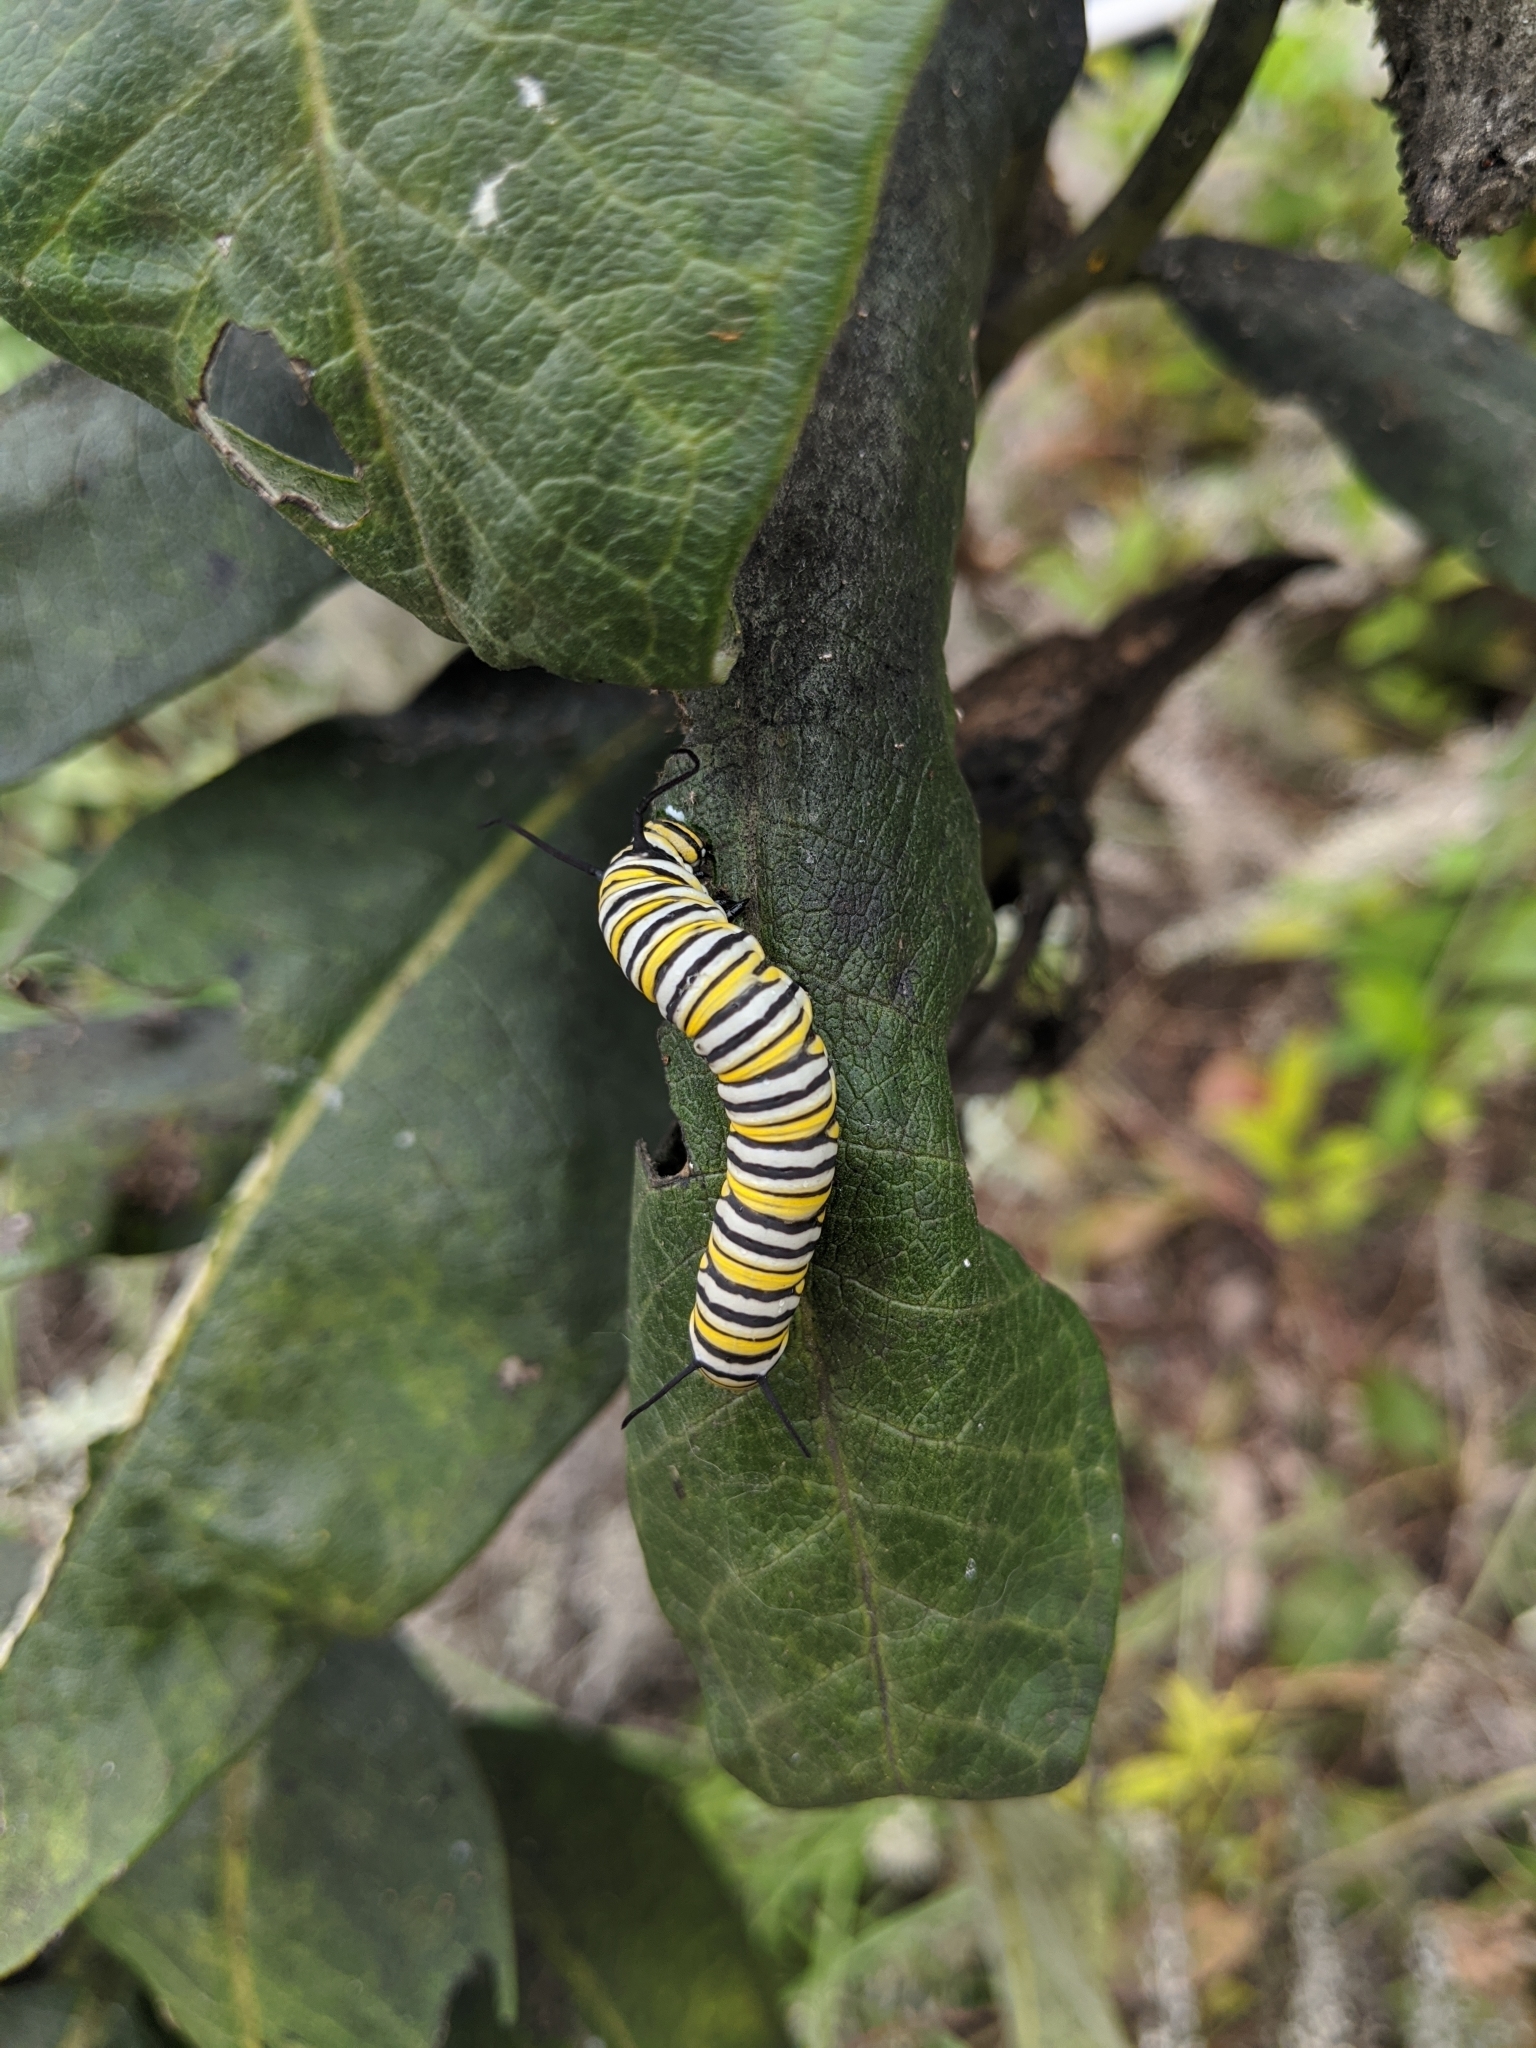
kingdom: Animalia
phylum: Arthropoda
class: Insecta
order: Lepidoptera
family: Nymphalidae
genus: Danaus
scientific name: Danaus plexippus
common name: Monarch
